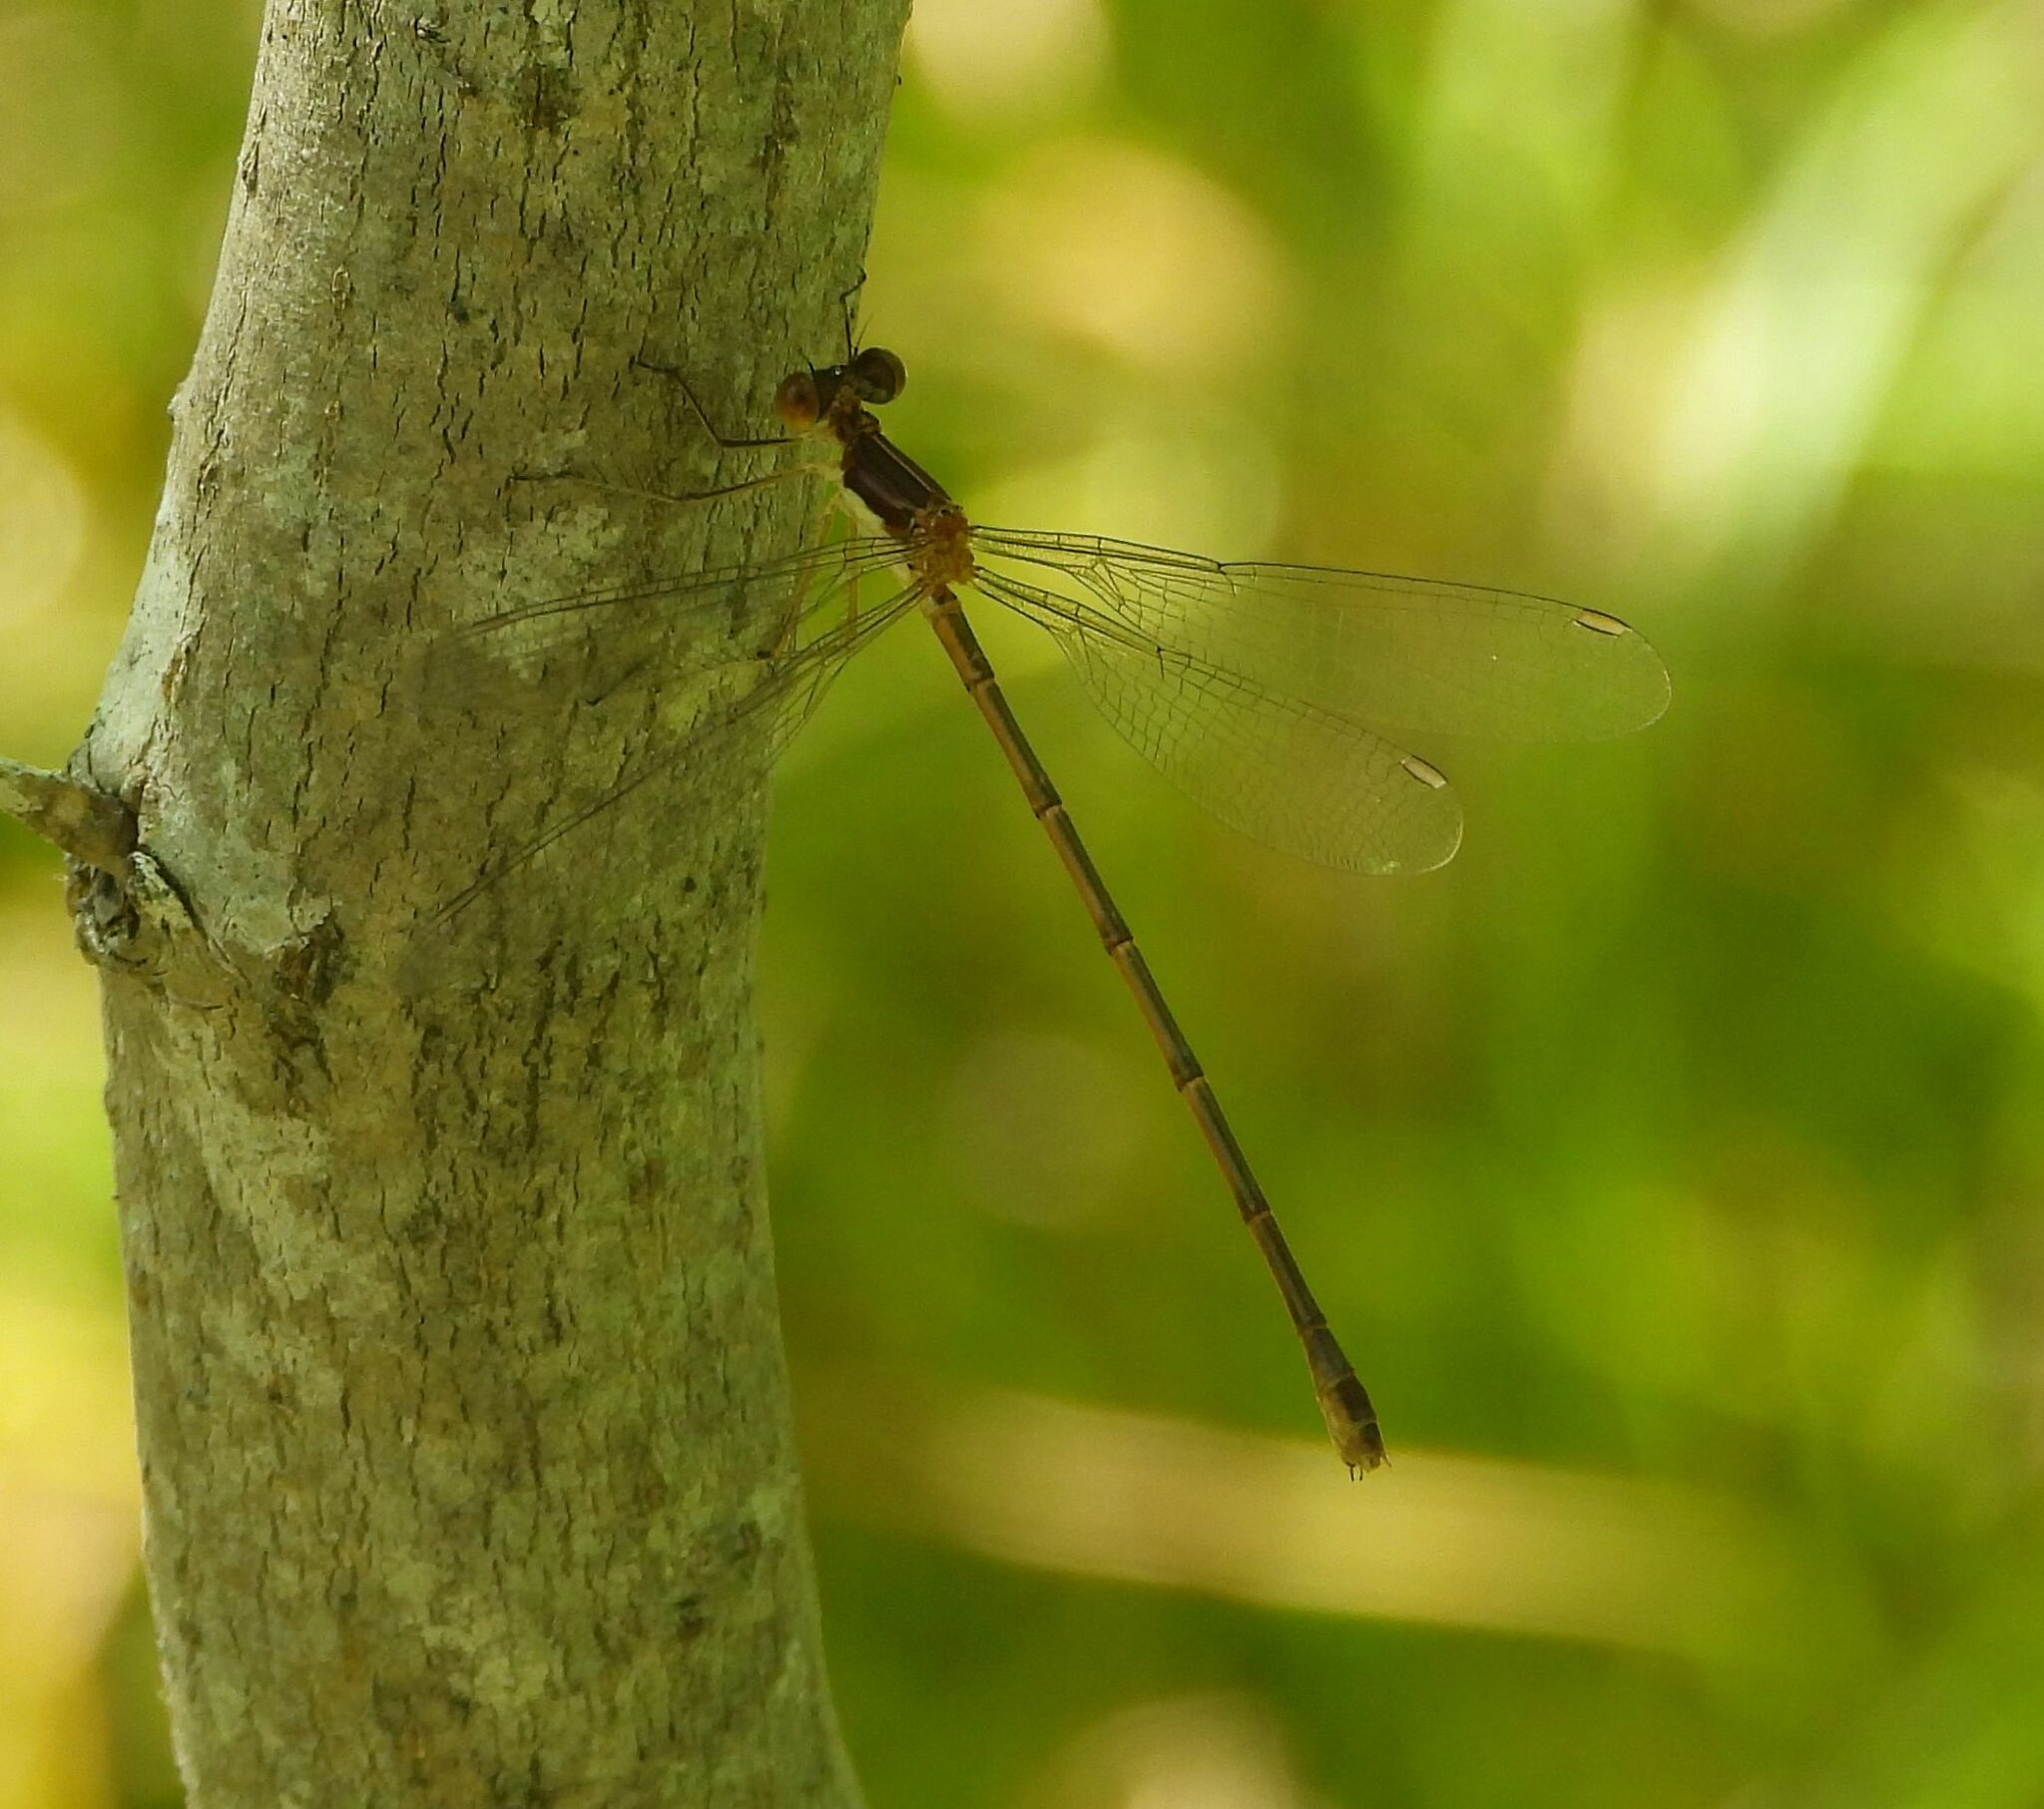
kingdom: Animalia
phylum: Arthropoda
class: Insecta
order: Odonata
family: Lestidae
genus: Lestes
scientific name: Lestes rectangularis
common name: Slender spreadwing
